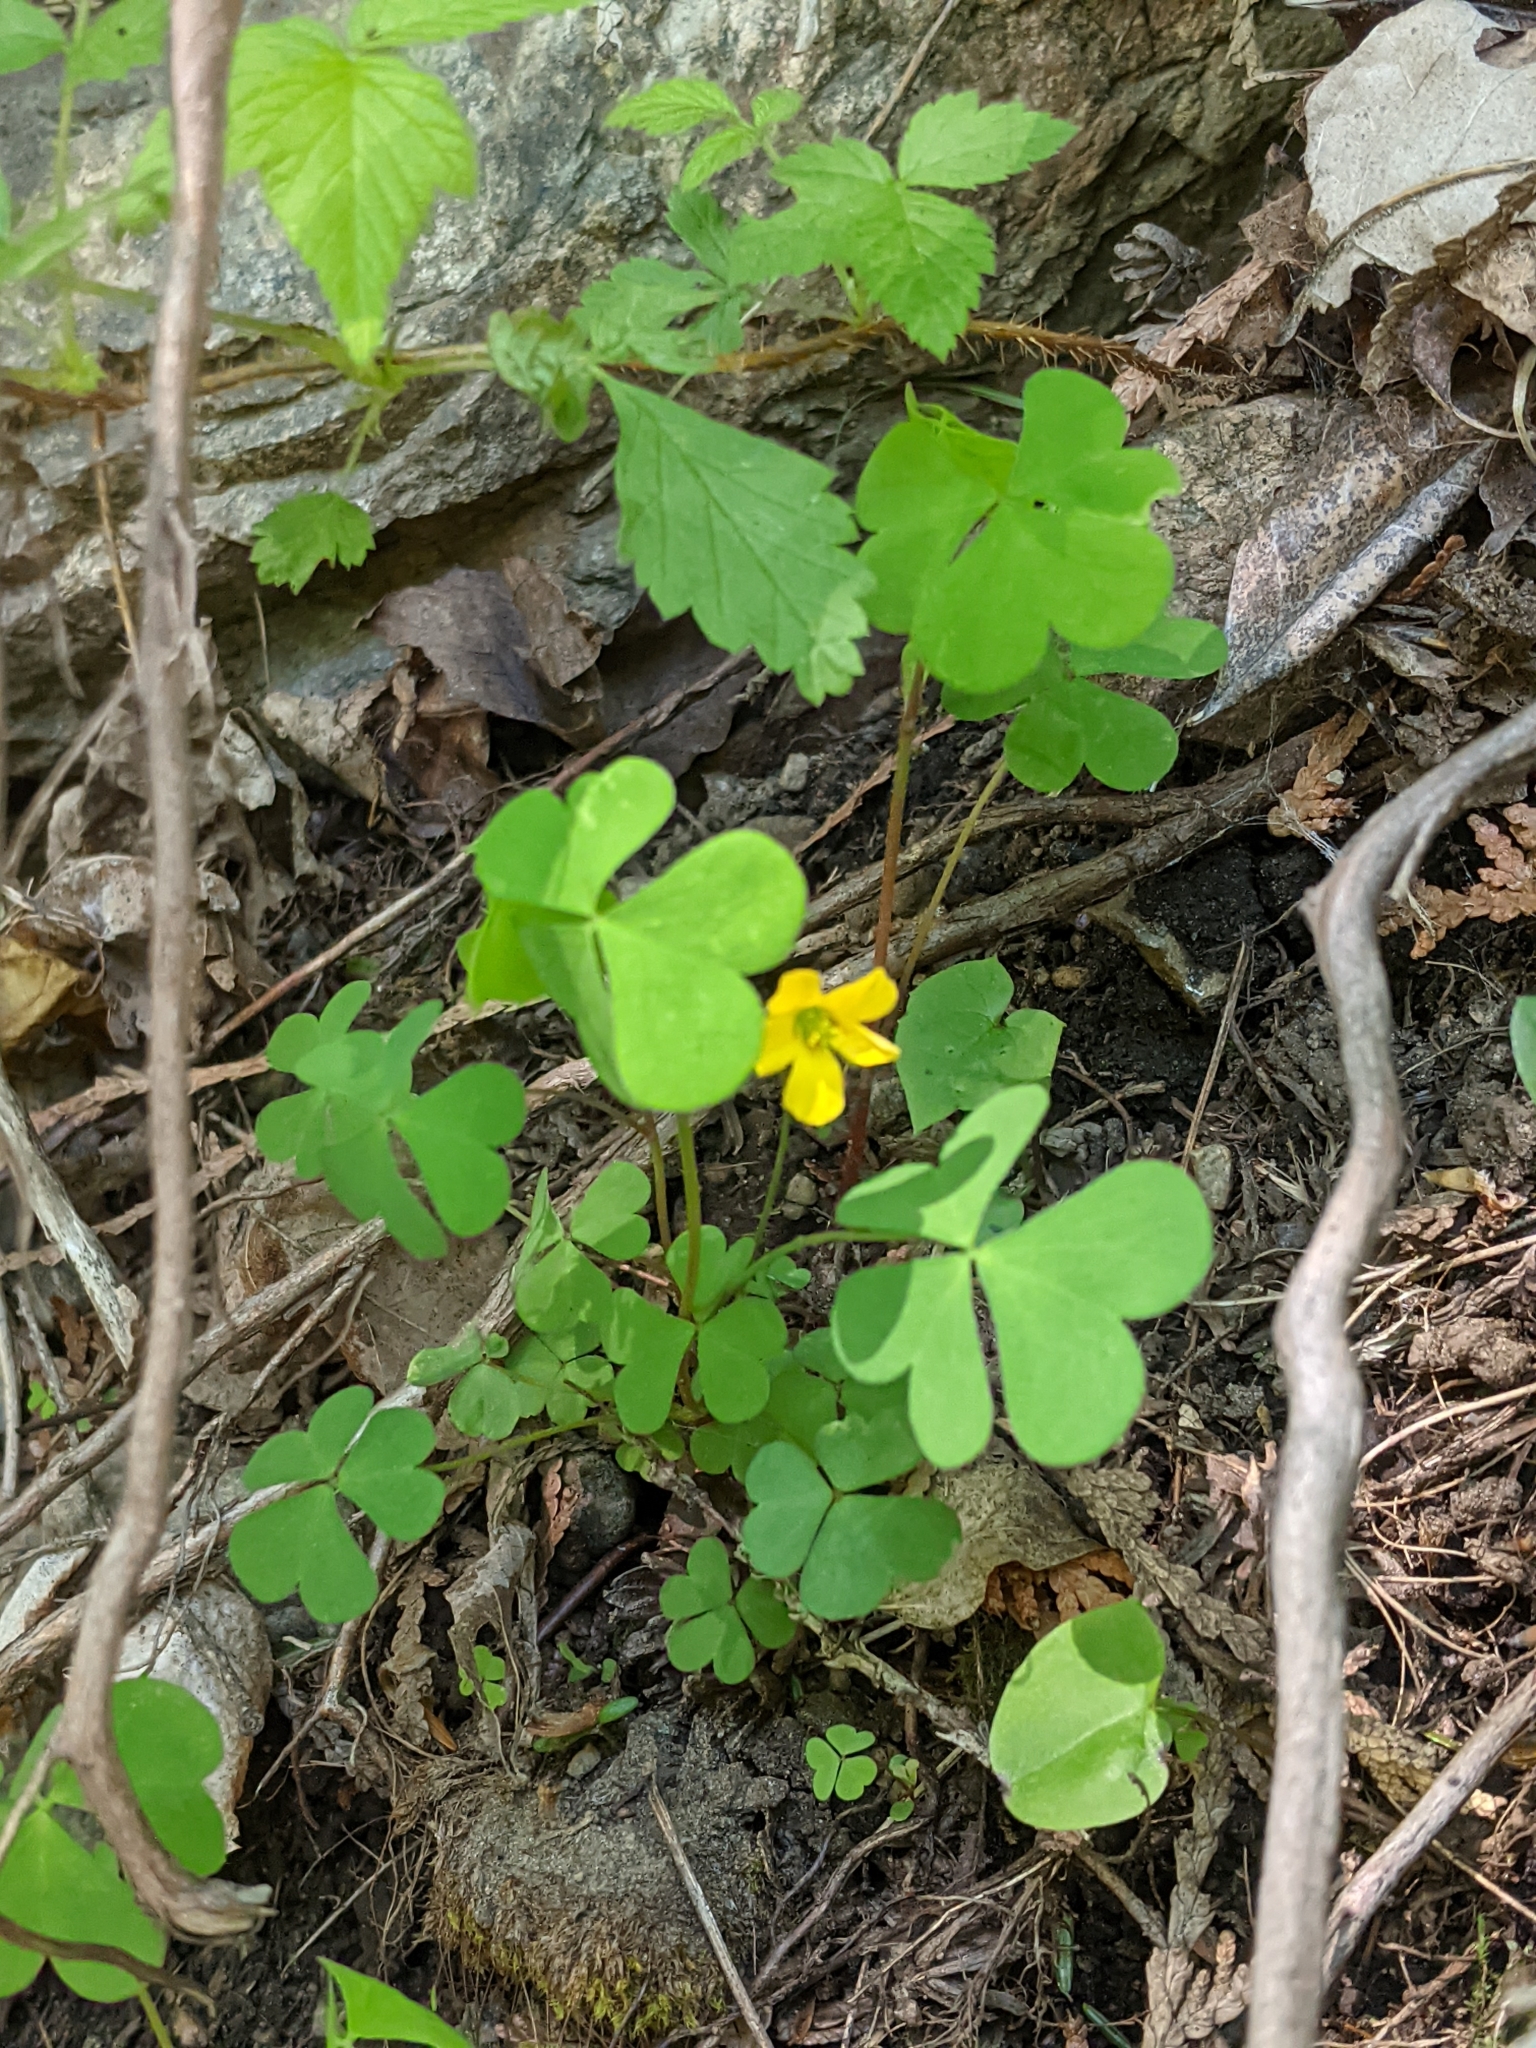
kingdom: Plantae
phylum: Tracheophyta
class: Magnoliopsida
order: Oxalidales
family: Oxalidaceae
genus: Oxalis
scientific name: Oxalis stricta
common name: Upright yellow-sorrel
